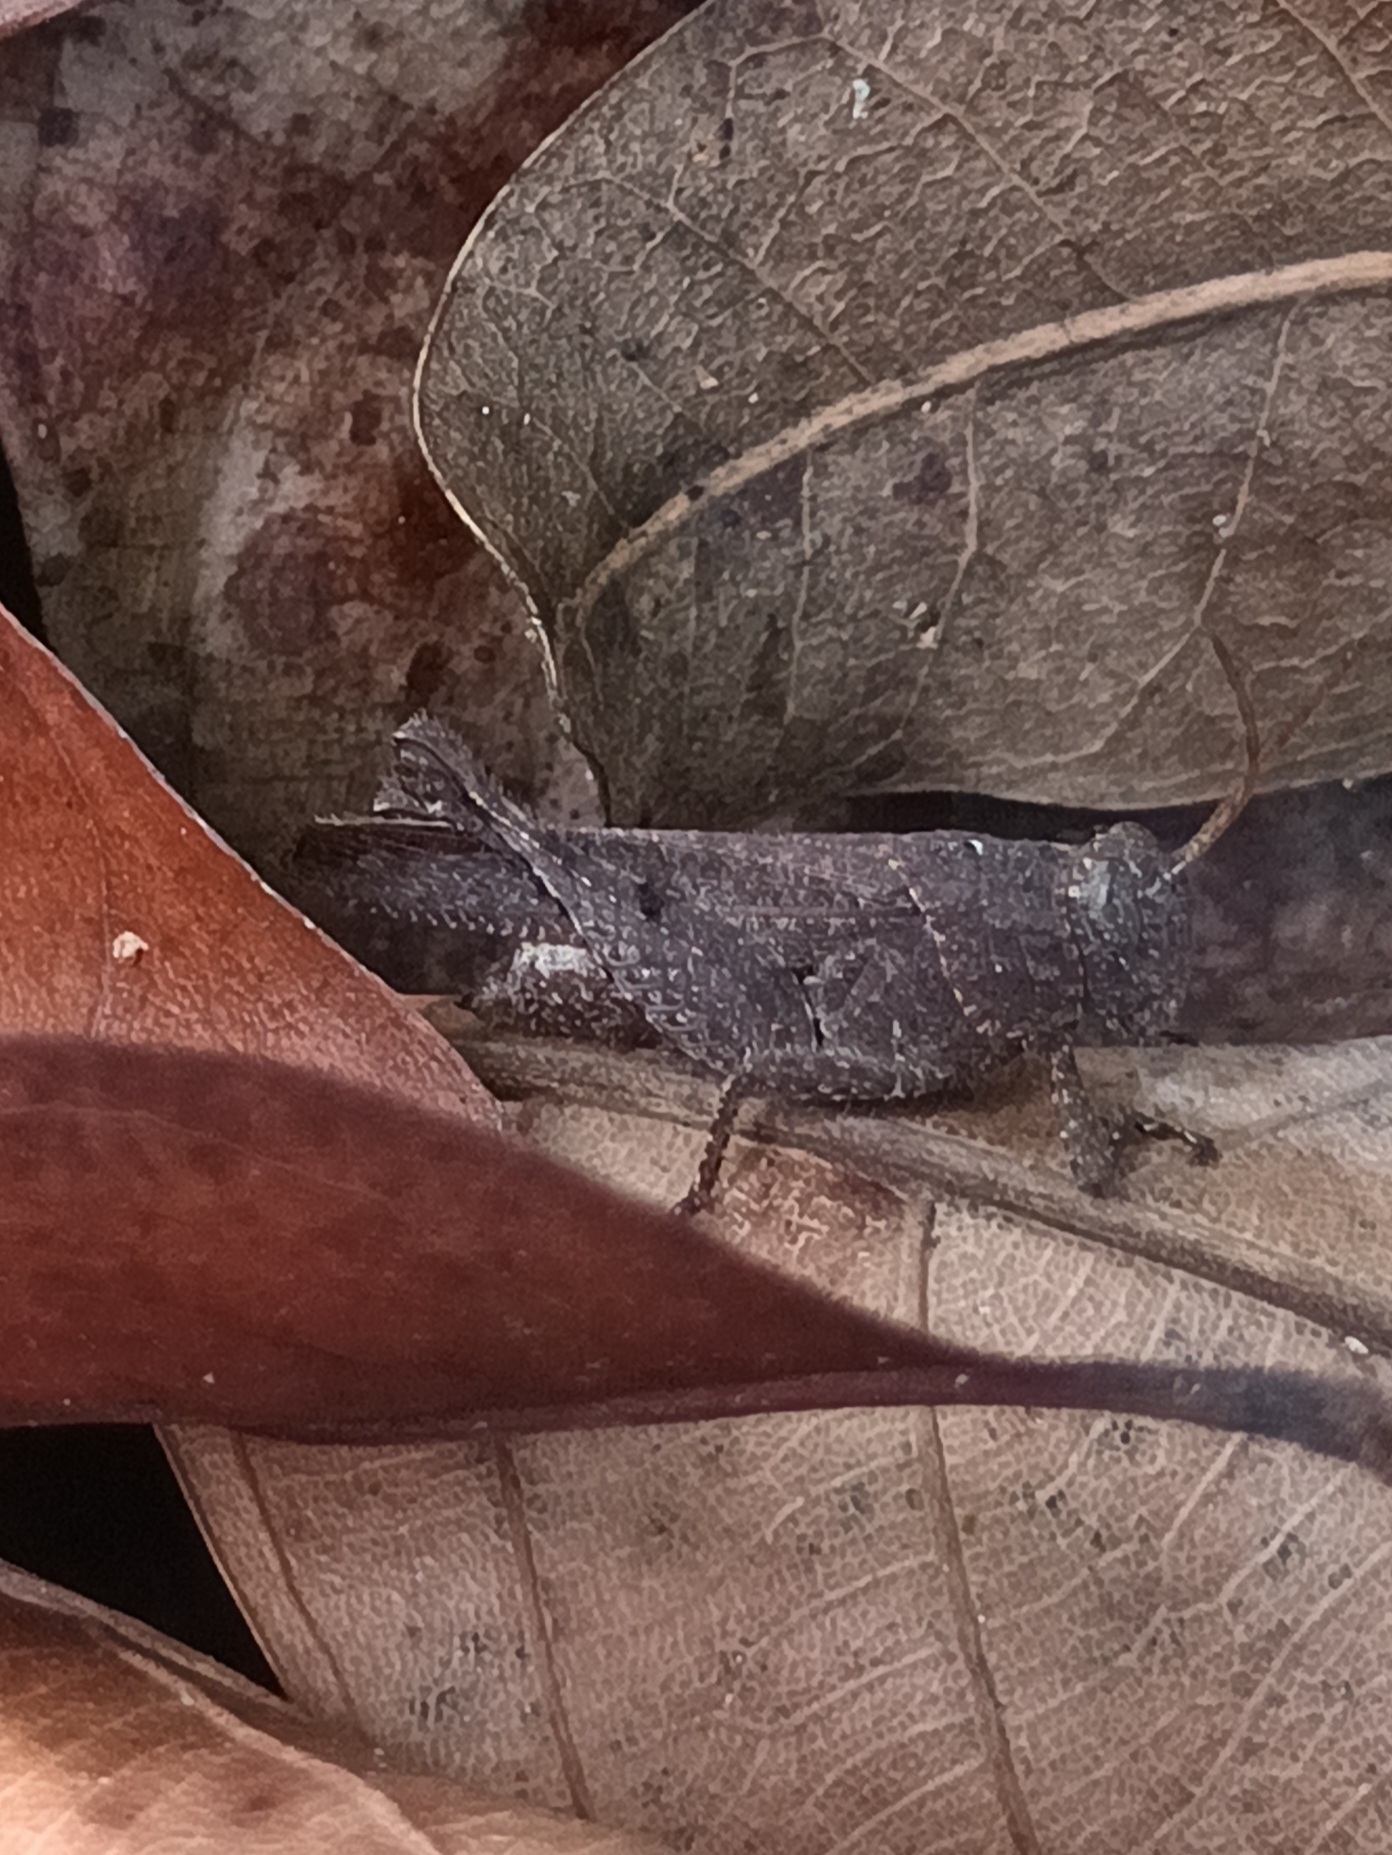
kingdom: Animalia
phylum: Arthropoda
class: Insecta
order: Orthoptera
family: Acrididae
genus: Eucoptacra
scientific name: Eucoptacra praemorsa
